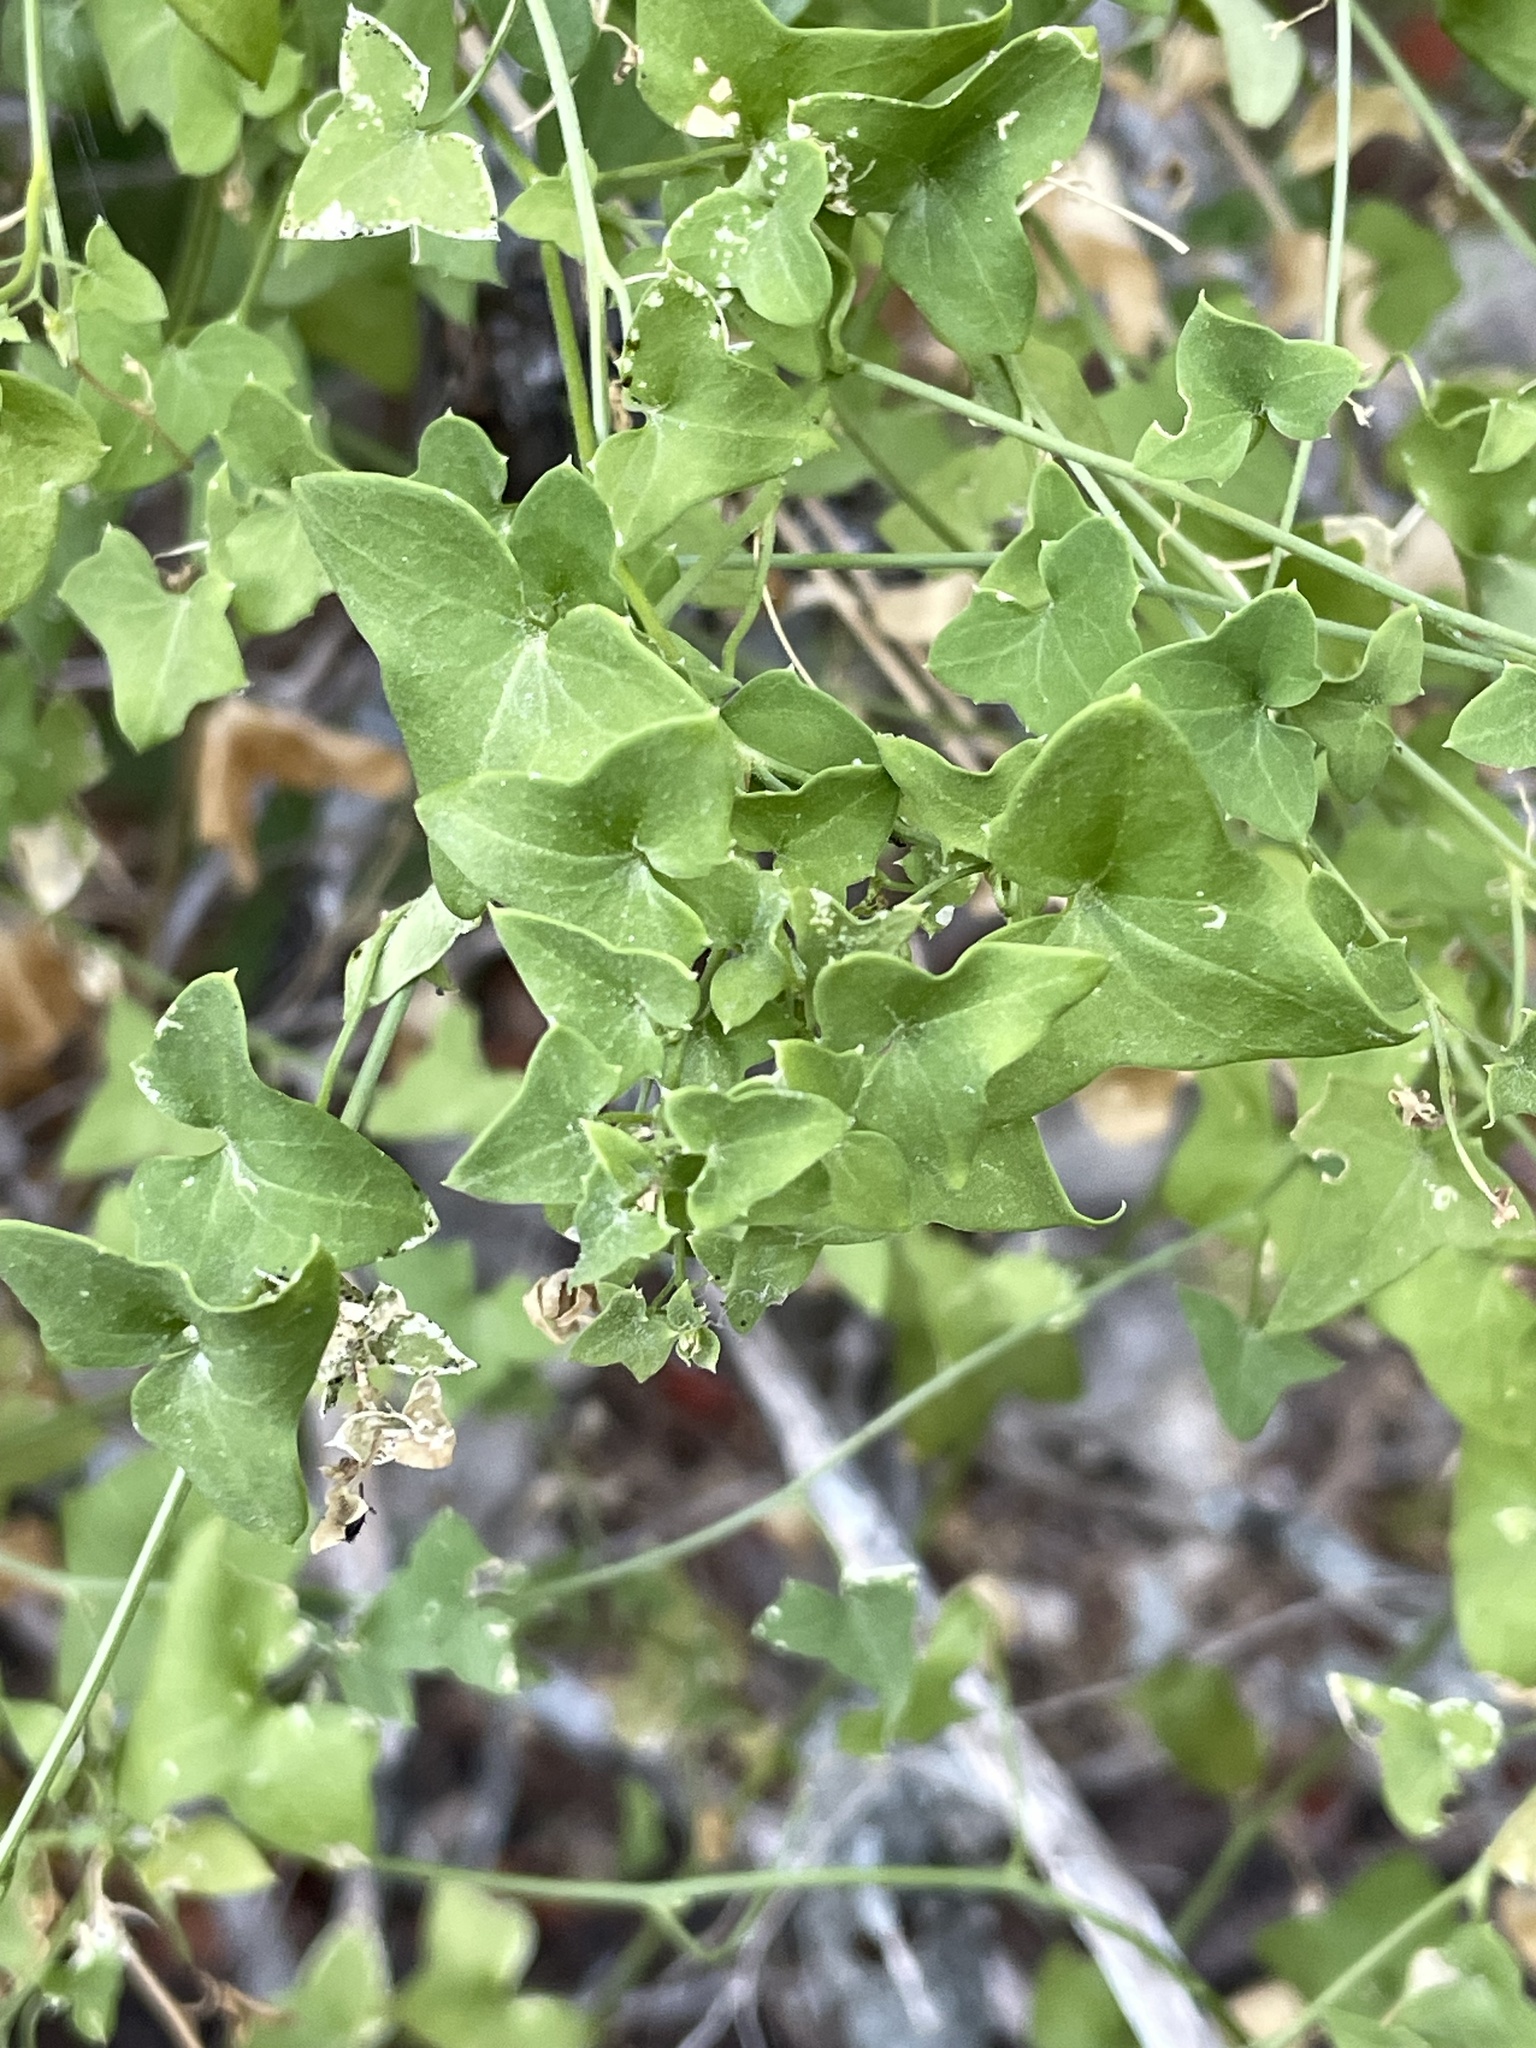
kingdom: Plantae
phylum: Tracheophyta
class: Magnoliopsida
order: Lamiales
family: Plantaginaceae
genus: Maurandella
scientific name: Maurandella antirrhiniflora
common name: Violet twining-snapdragon
